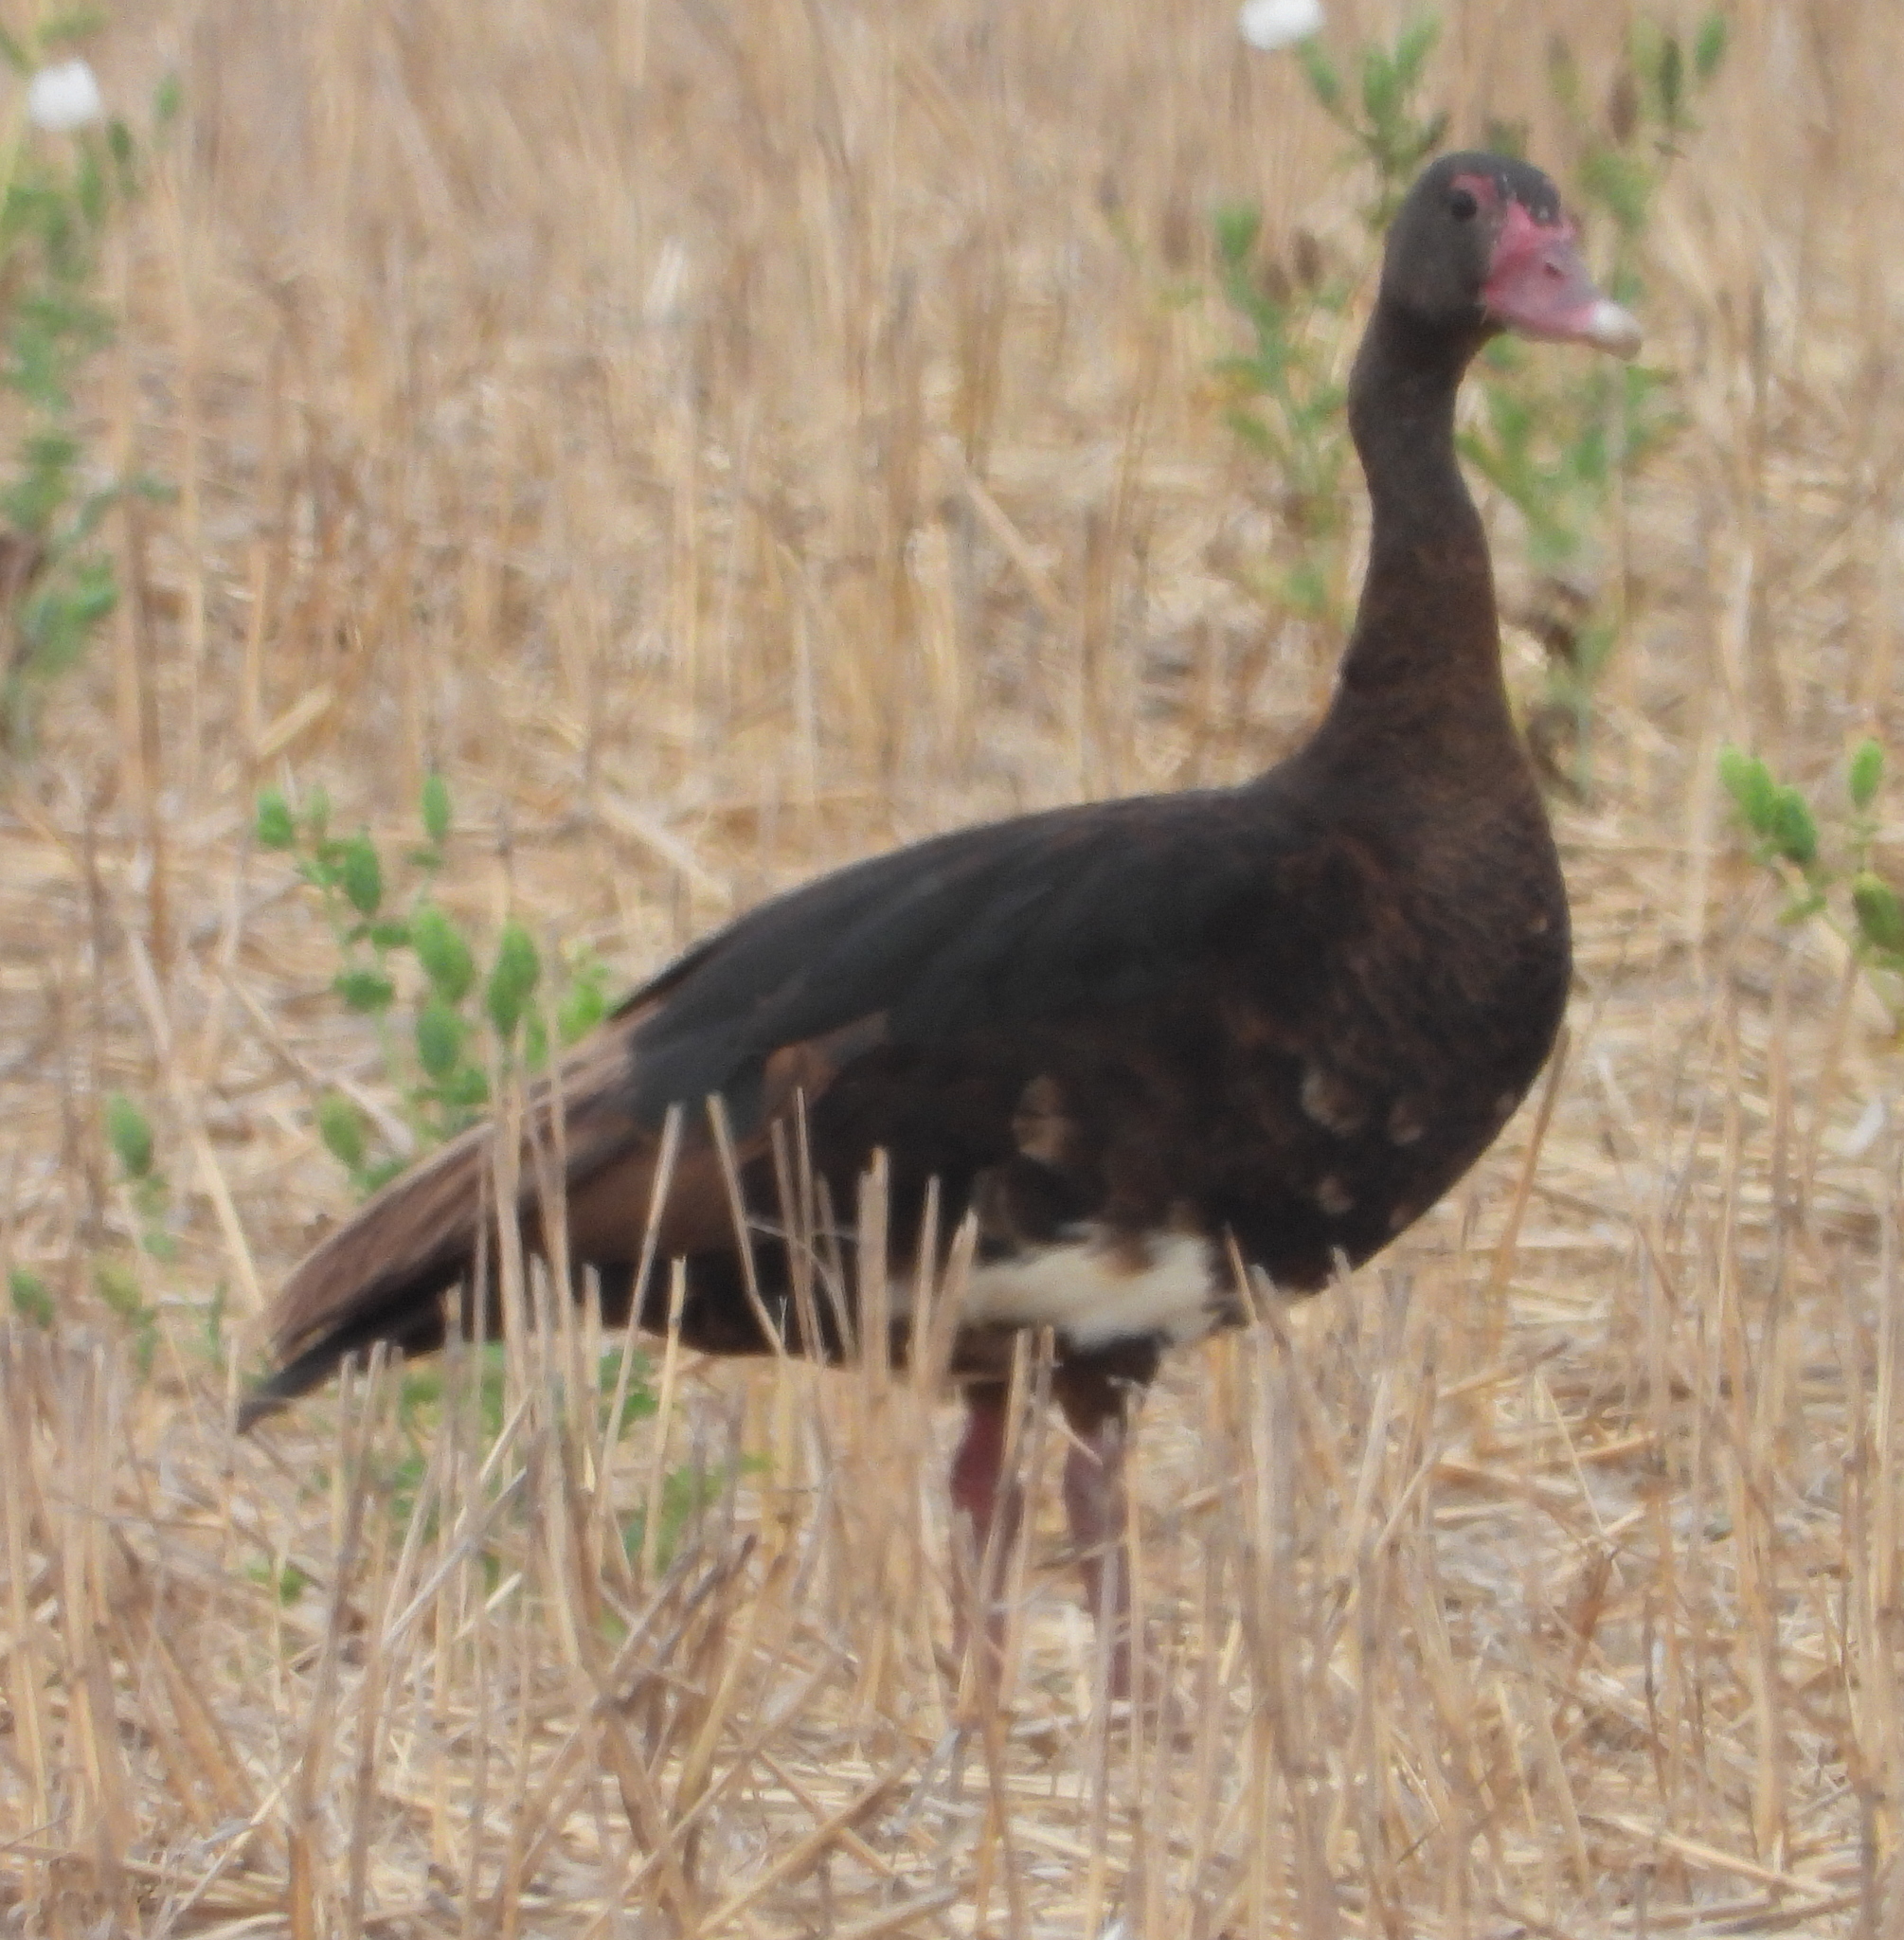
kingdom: Animalia
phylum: Chordata
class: Aves
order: Anseriformes
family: Anatidae
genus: Plectropterus
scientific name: Plectropterus gambensis
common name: Spur-winged goose
